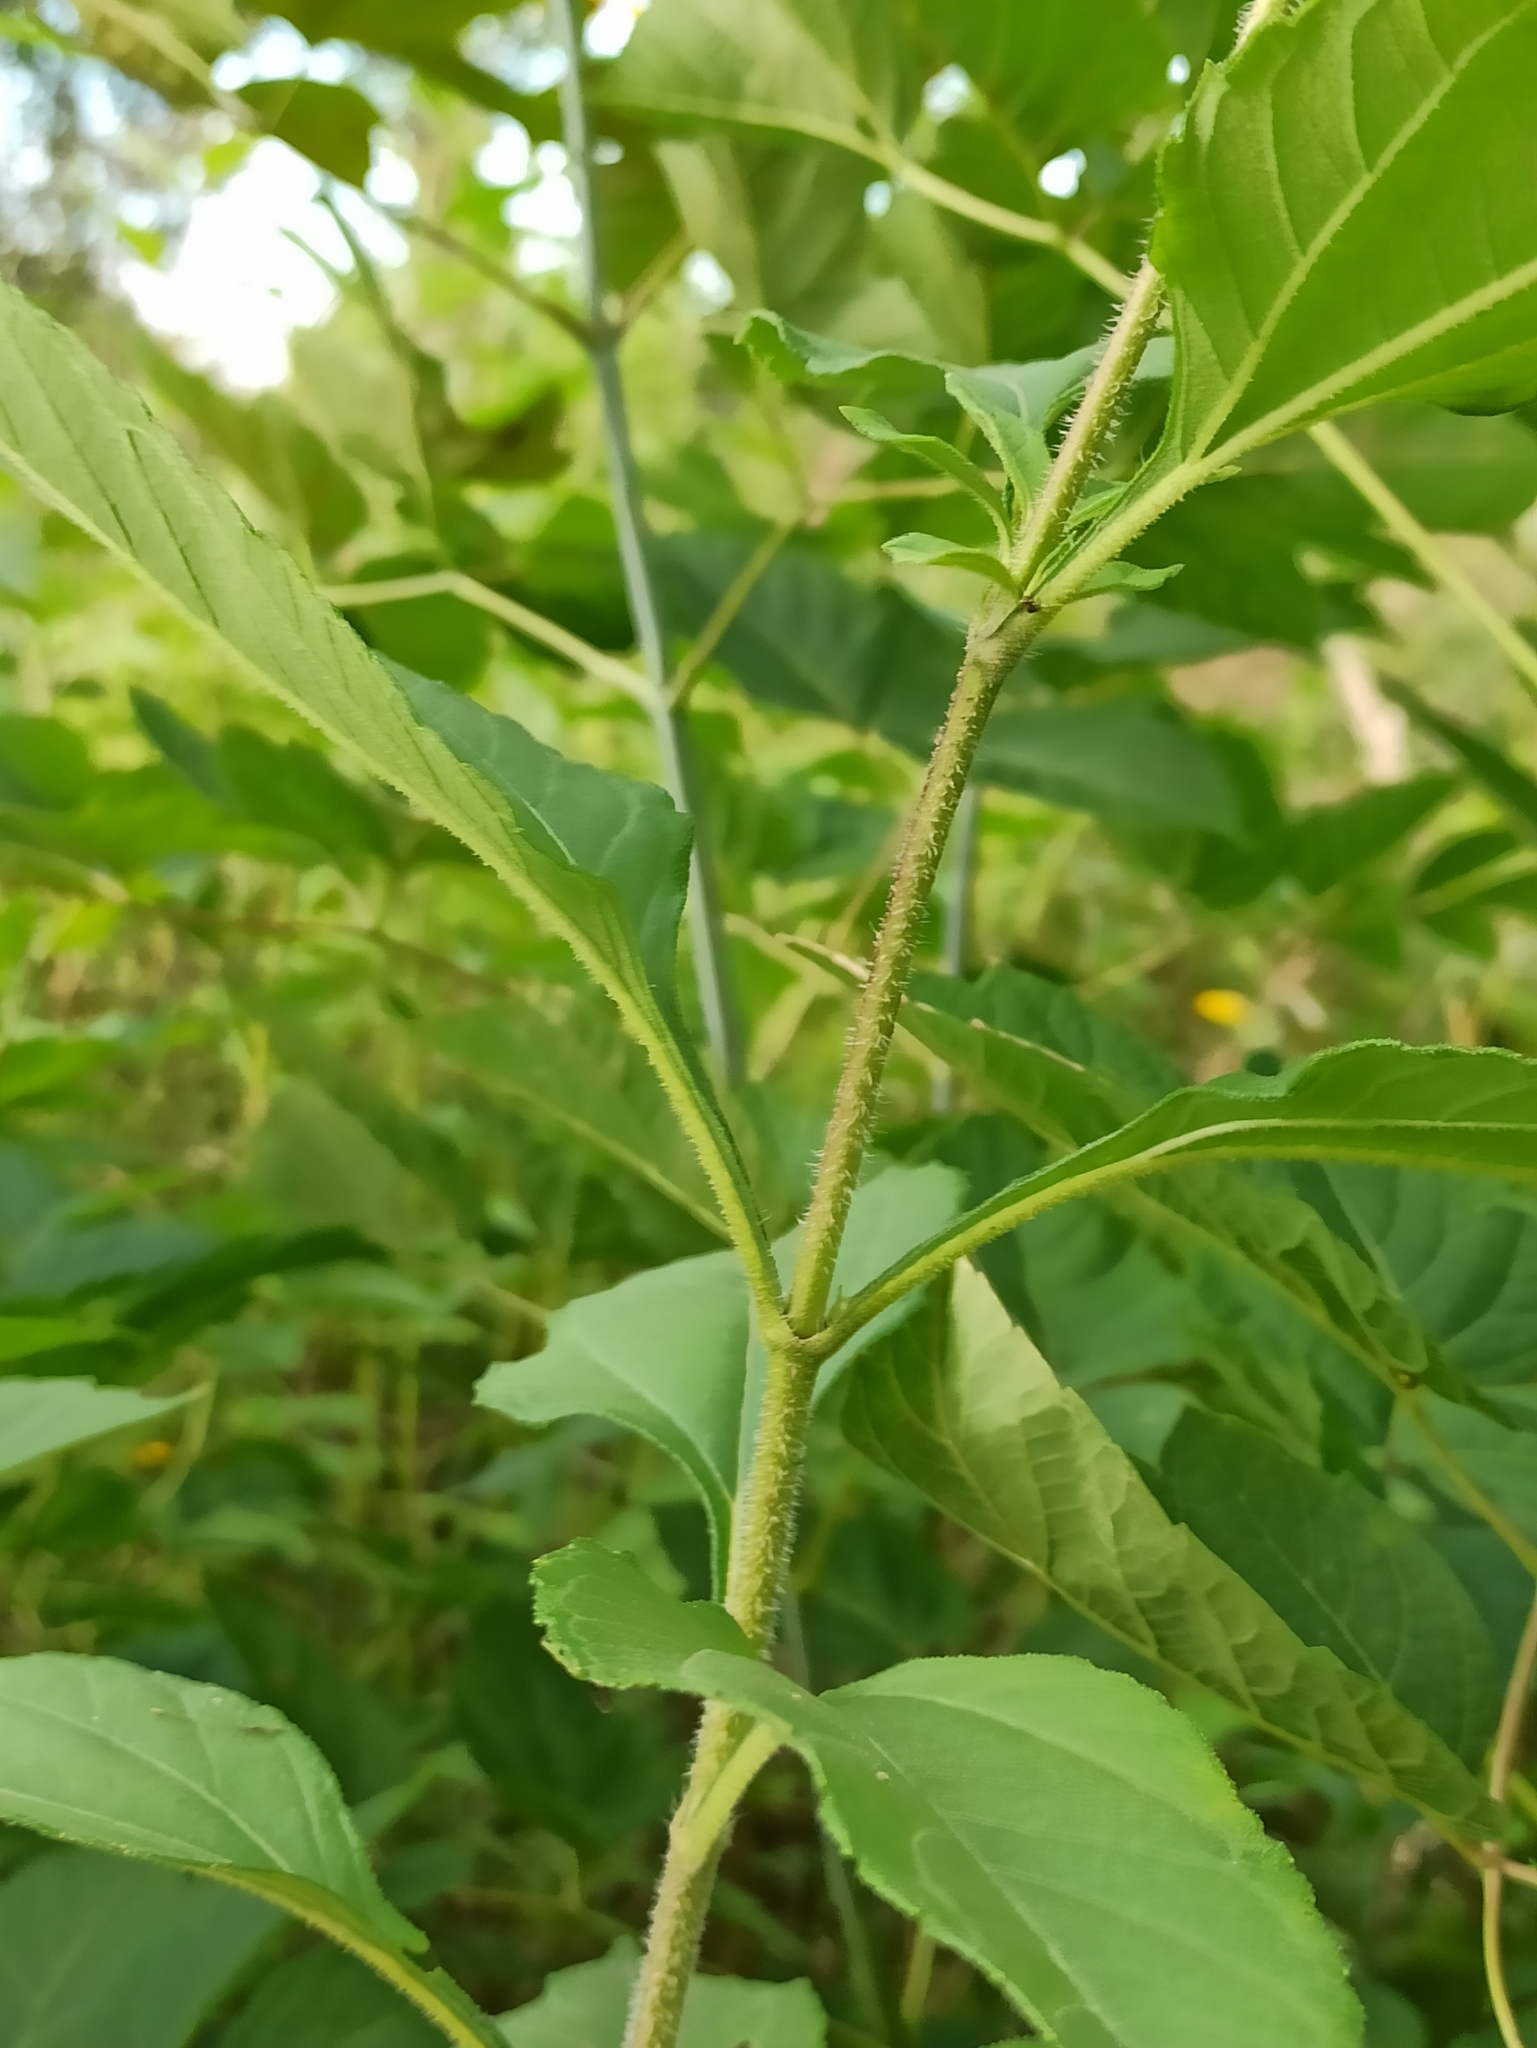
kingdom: Plantae
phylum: Tracheophyta
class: Magnoliopsida
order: Asterales
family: Asteraceae
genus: Helianthus
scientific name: Helianthus tuberosus
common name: Jerusalem artichoke
